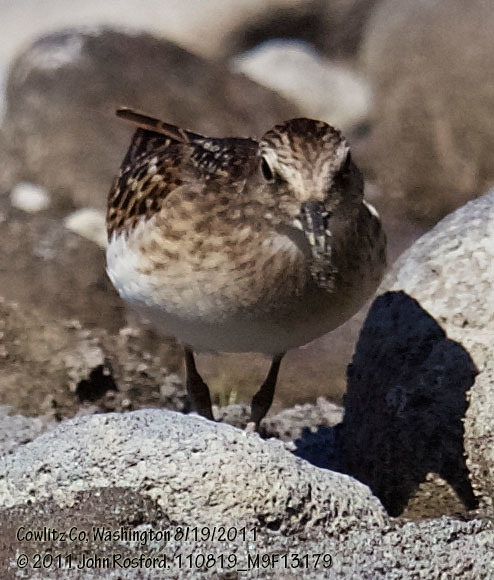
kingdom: Animalia
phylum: Chordata
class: Aves
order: Charadriiformes
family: Scolopacidae
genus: Calidris
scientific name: Calidris minutilla
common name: Least sandpiper
